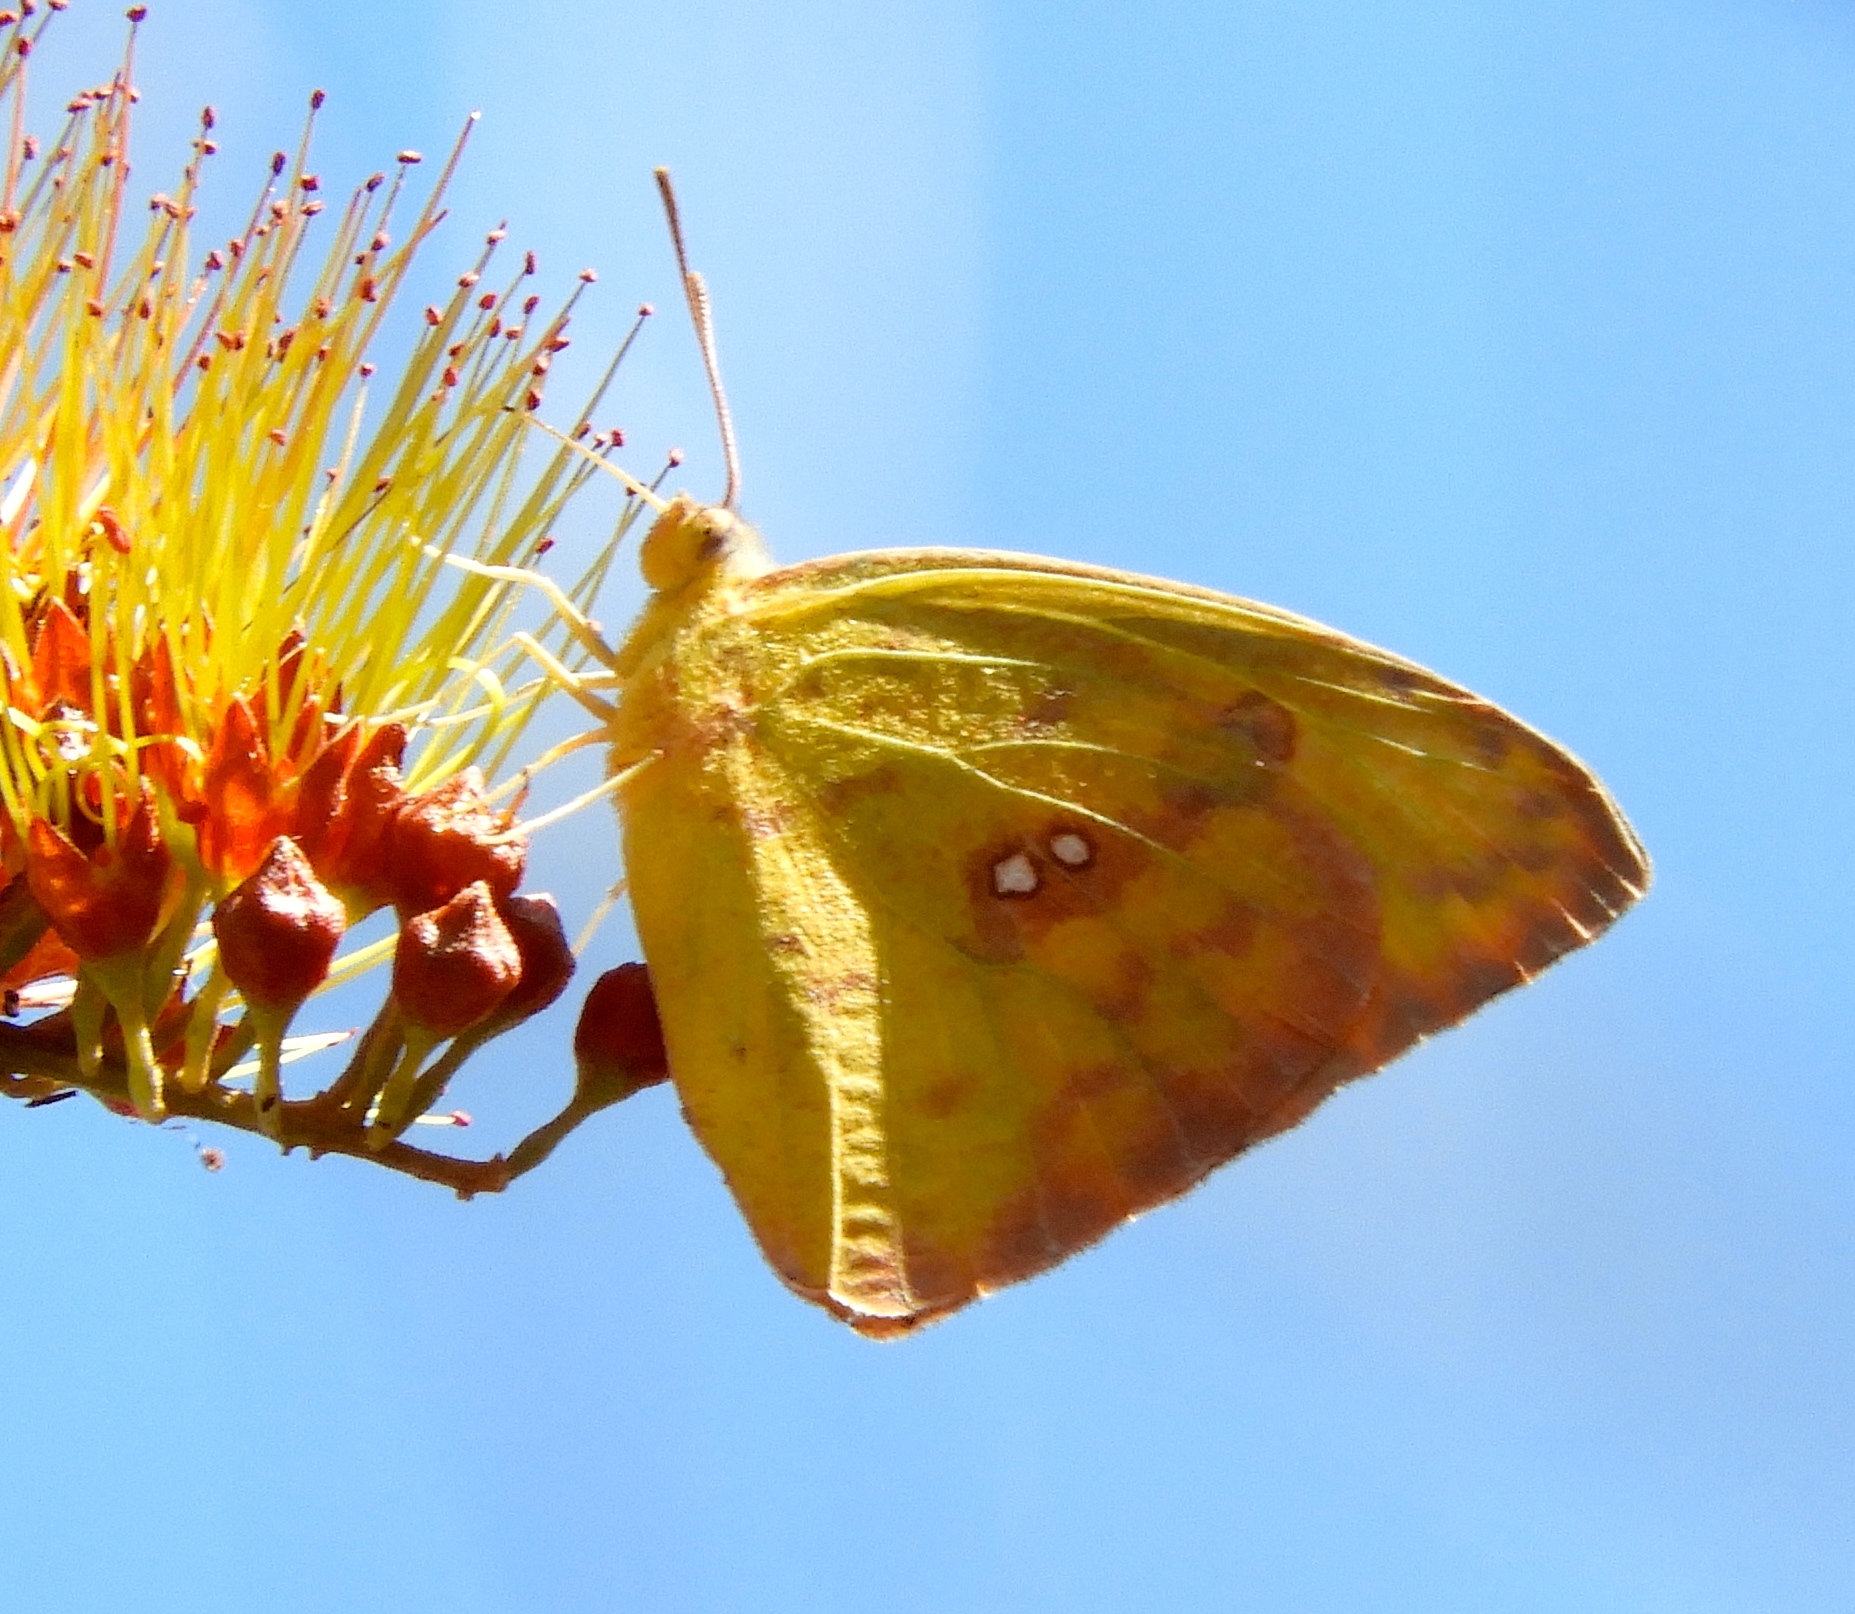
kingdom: Animalia
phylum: Arthropoda
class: Insecta
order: Lepidoptera
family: Pieridae
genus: Phoebis
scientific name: Phoebis philea
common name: Orange-barred giant sulphur
